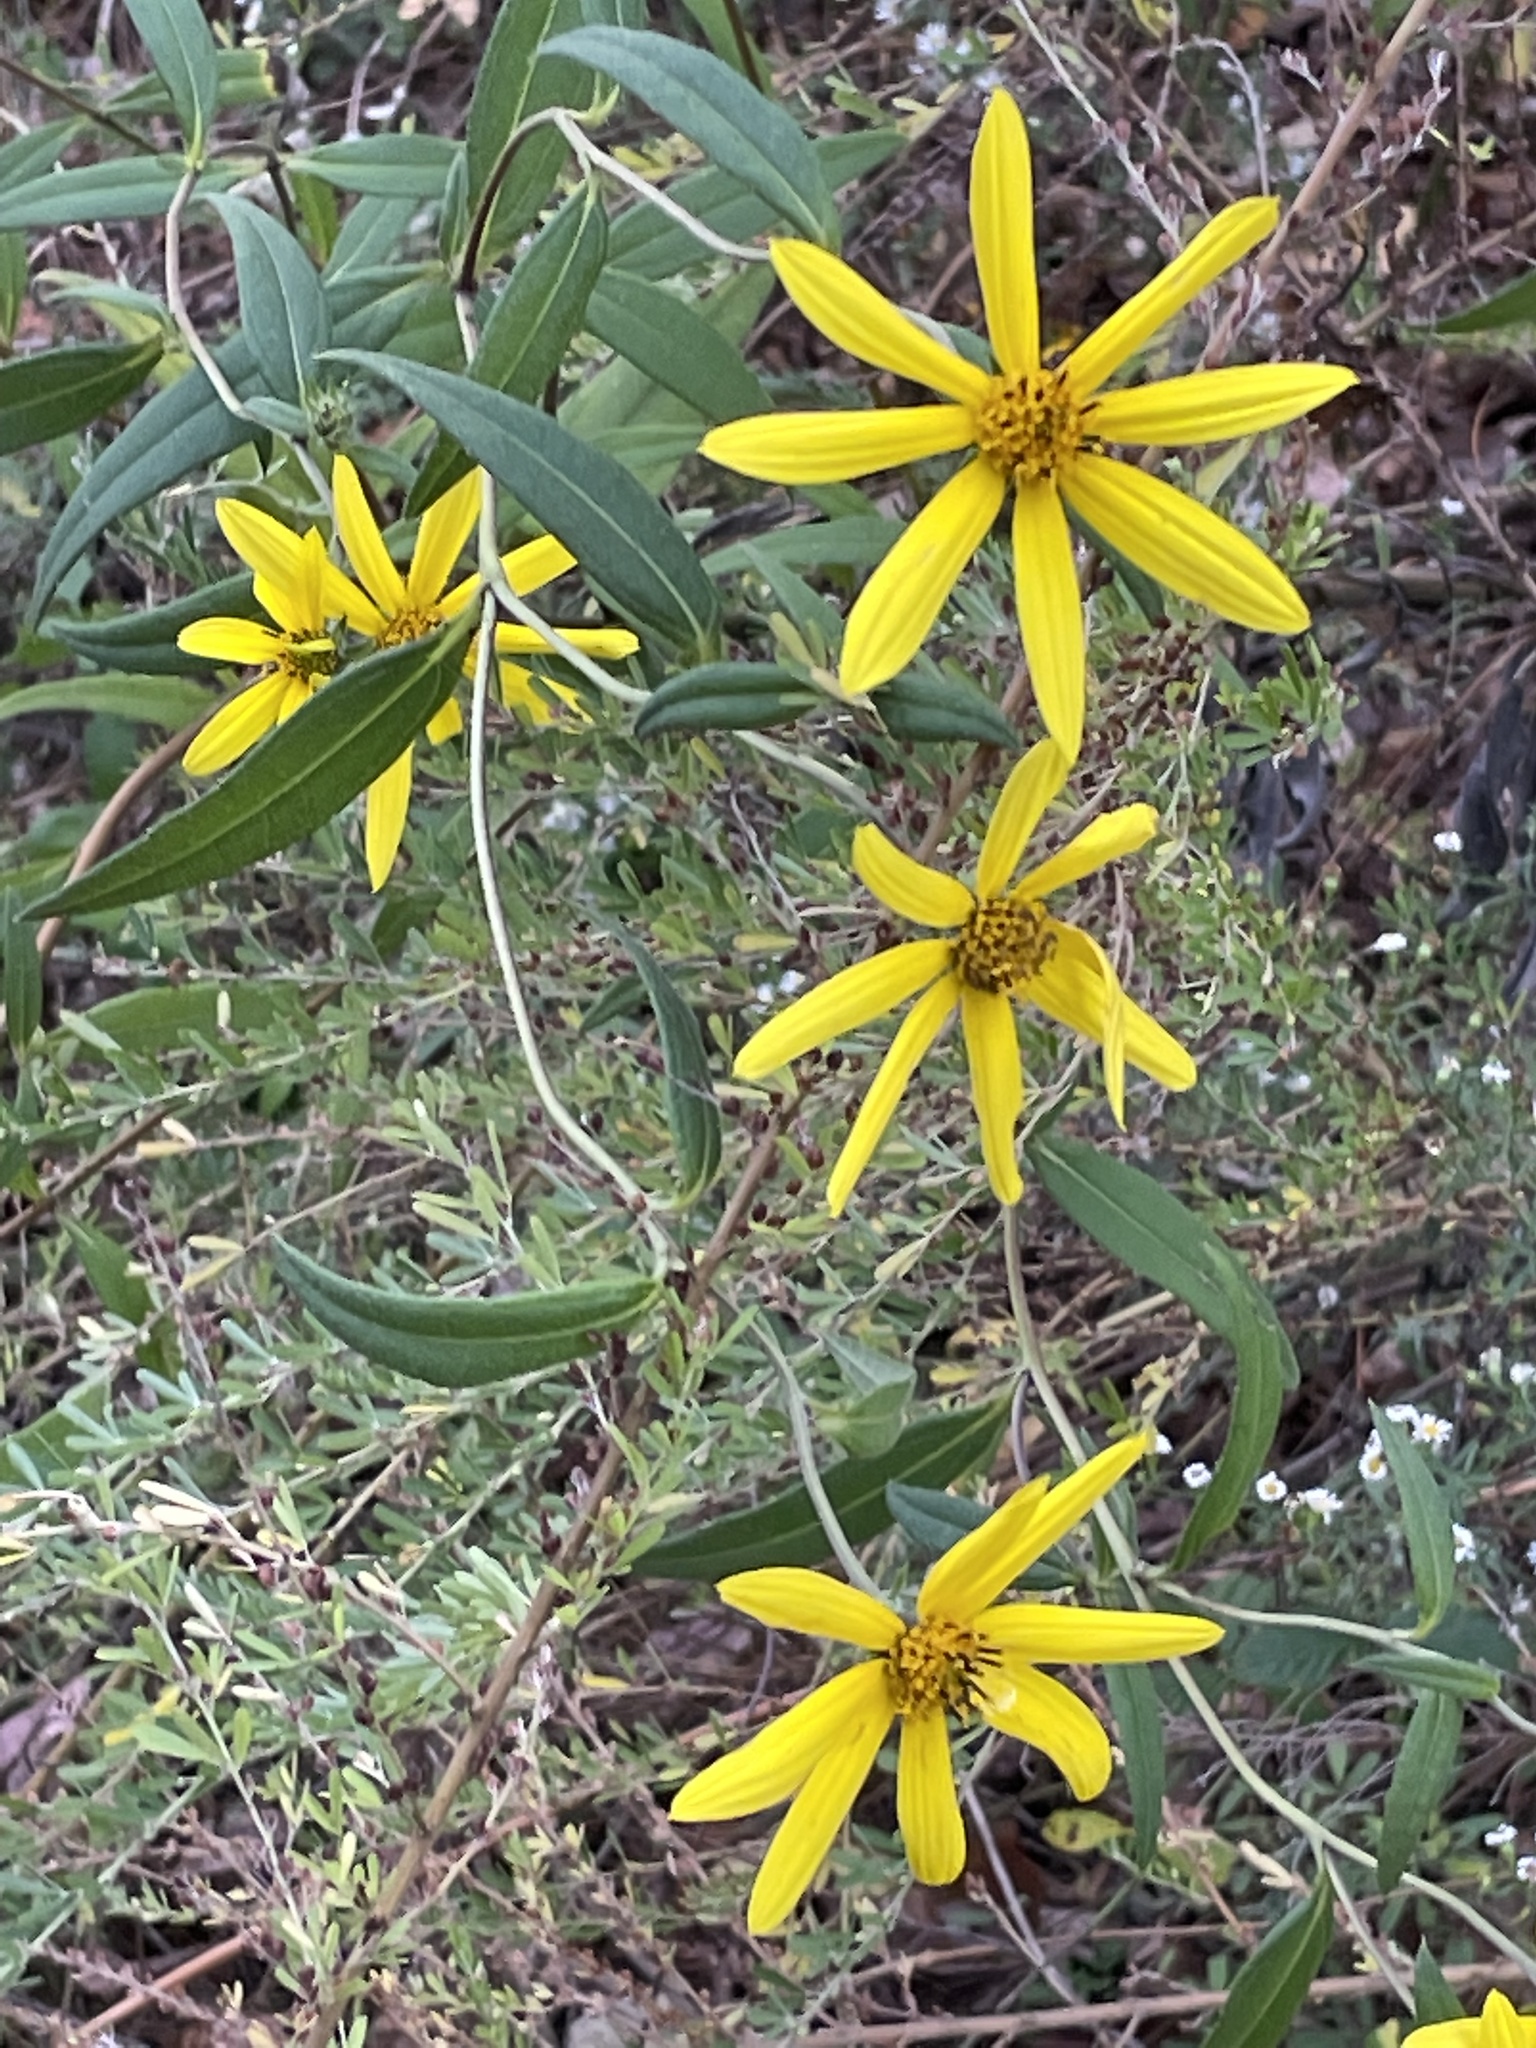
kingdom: Plantae
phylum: Tracheophyta
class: Magnoliopsida
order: Asterales
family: Asteraceae
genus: Helianthus
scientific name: Helianthus schweinitzii
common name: Schweinitz's sunflower
